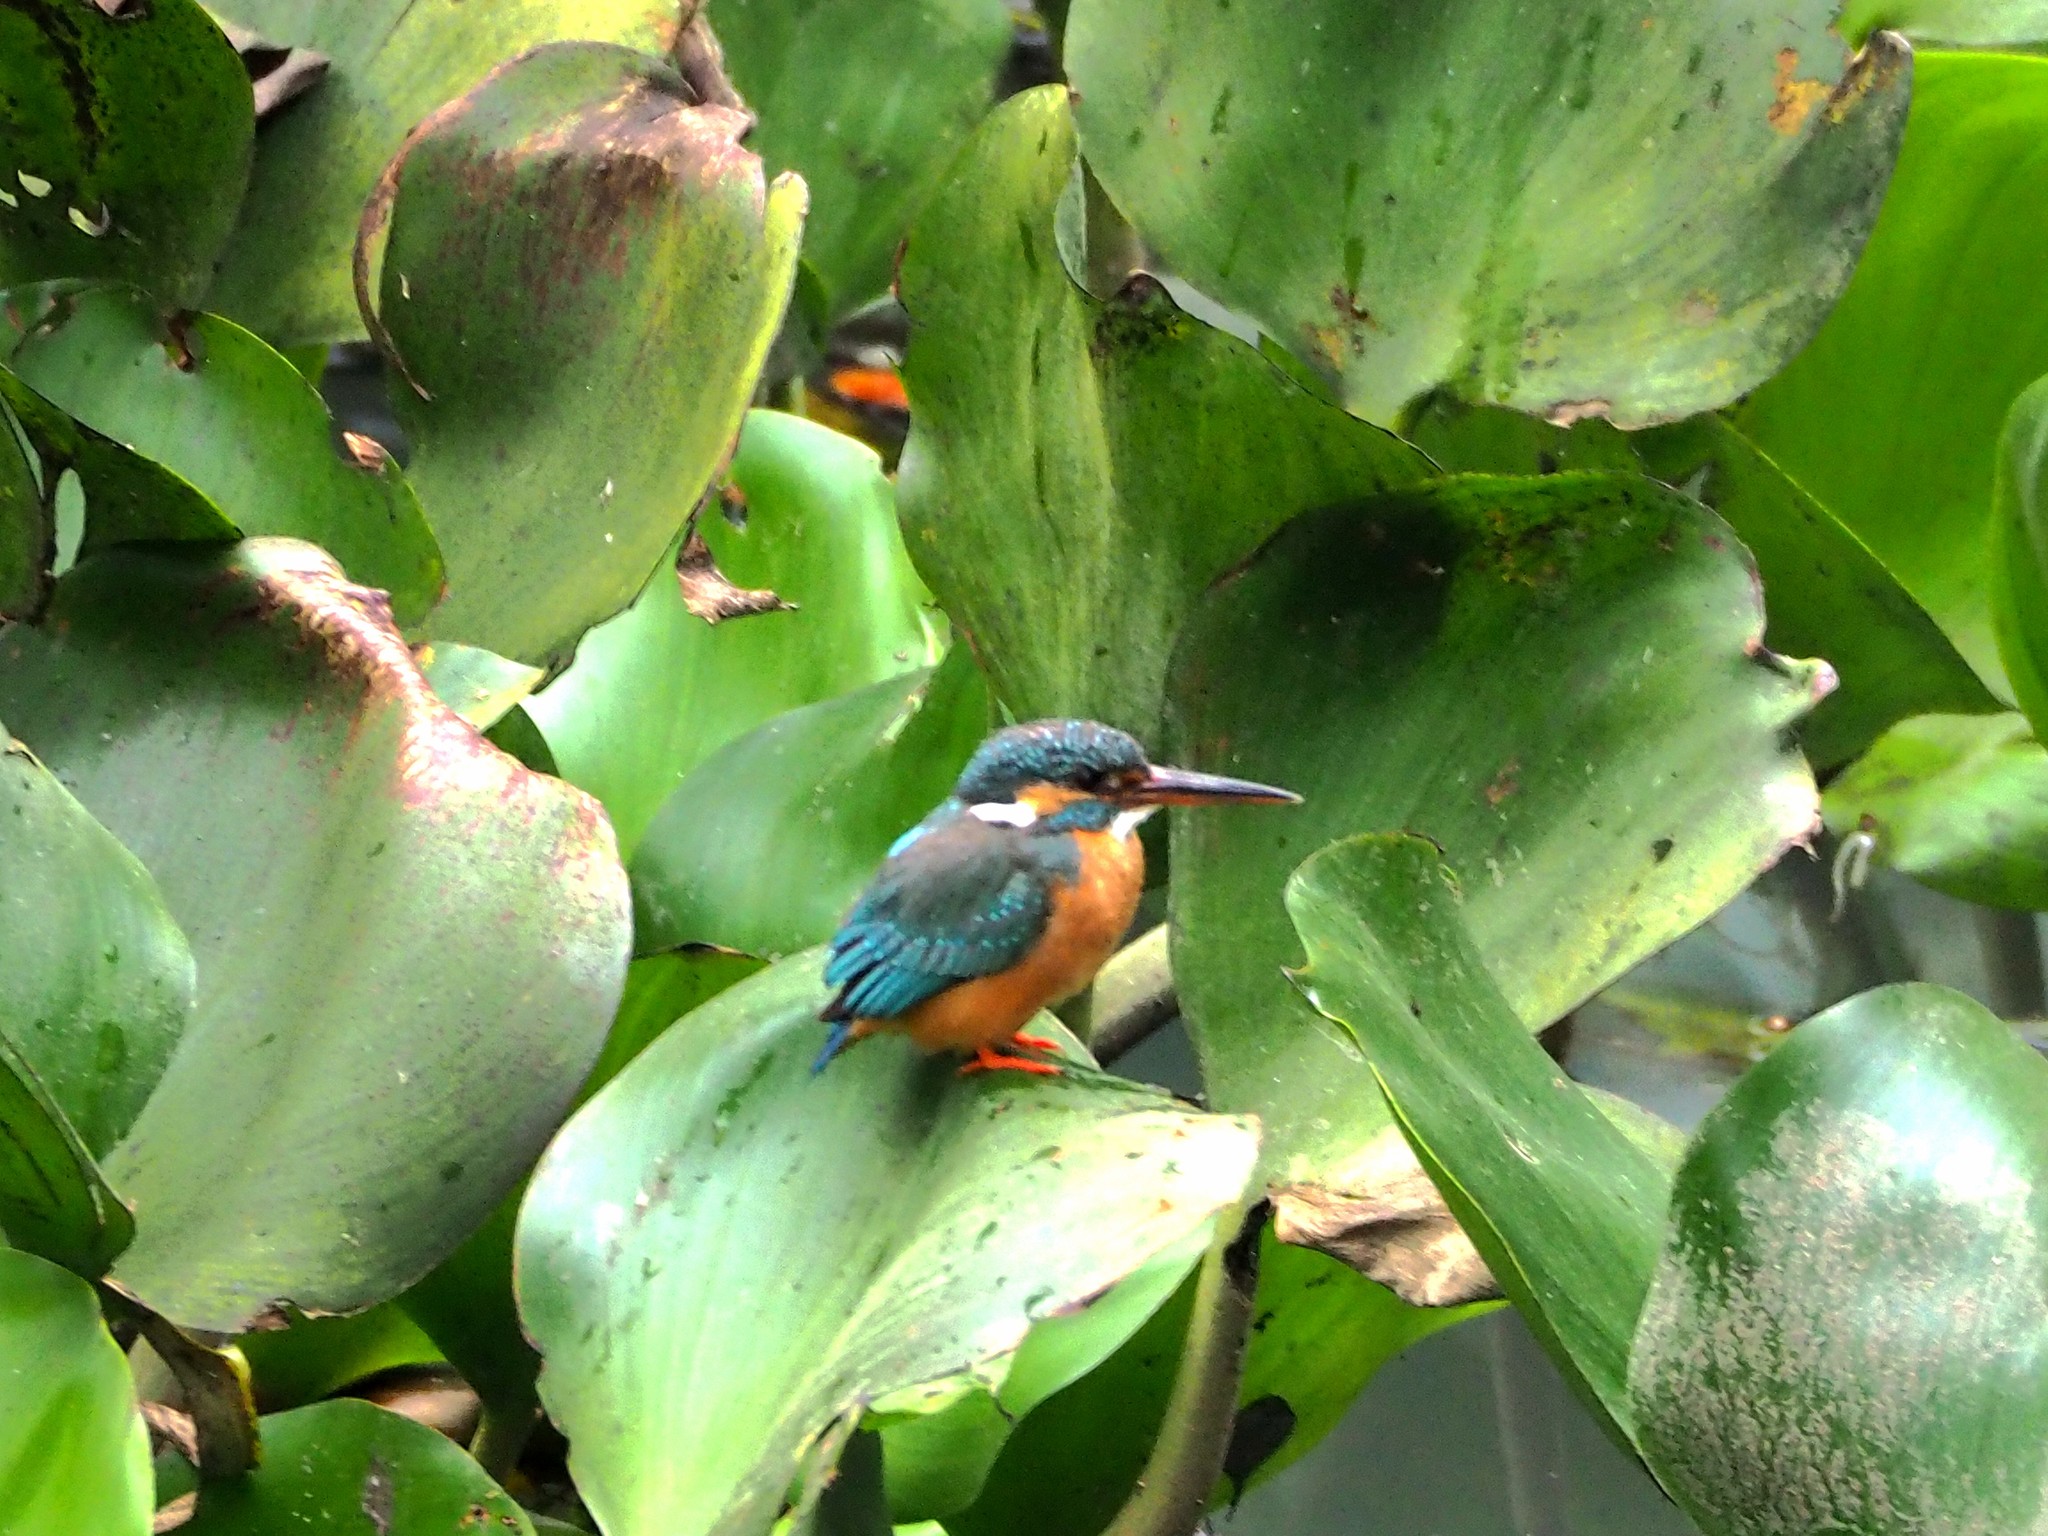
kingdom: Animalia
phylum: Chordata
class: Aves
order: Coraciiformes
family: Alcedinidae
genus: Alcedo
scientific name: Alcedo atthis
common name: Common kingfisher
